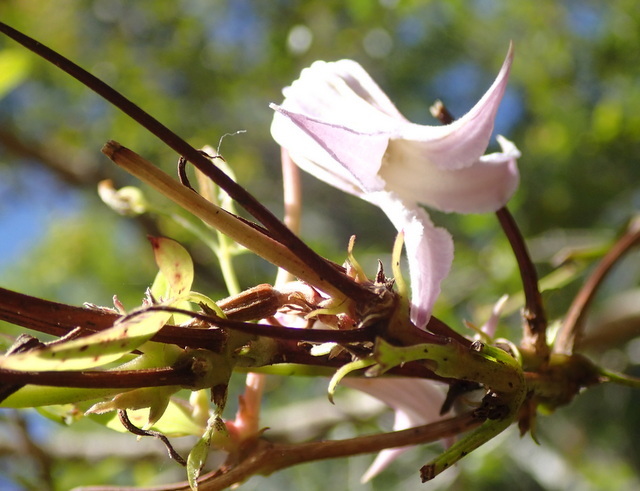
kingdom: Plantae
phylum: Tracheophyta
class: Magnoliopsida
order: Ranunculales
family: Ranunculaceae
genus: Clematis
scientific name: Clematis crispa
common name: Curly clematis
